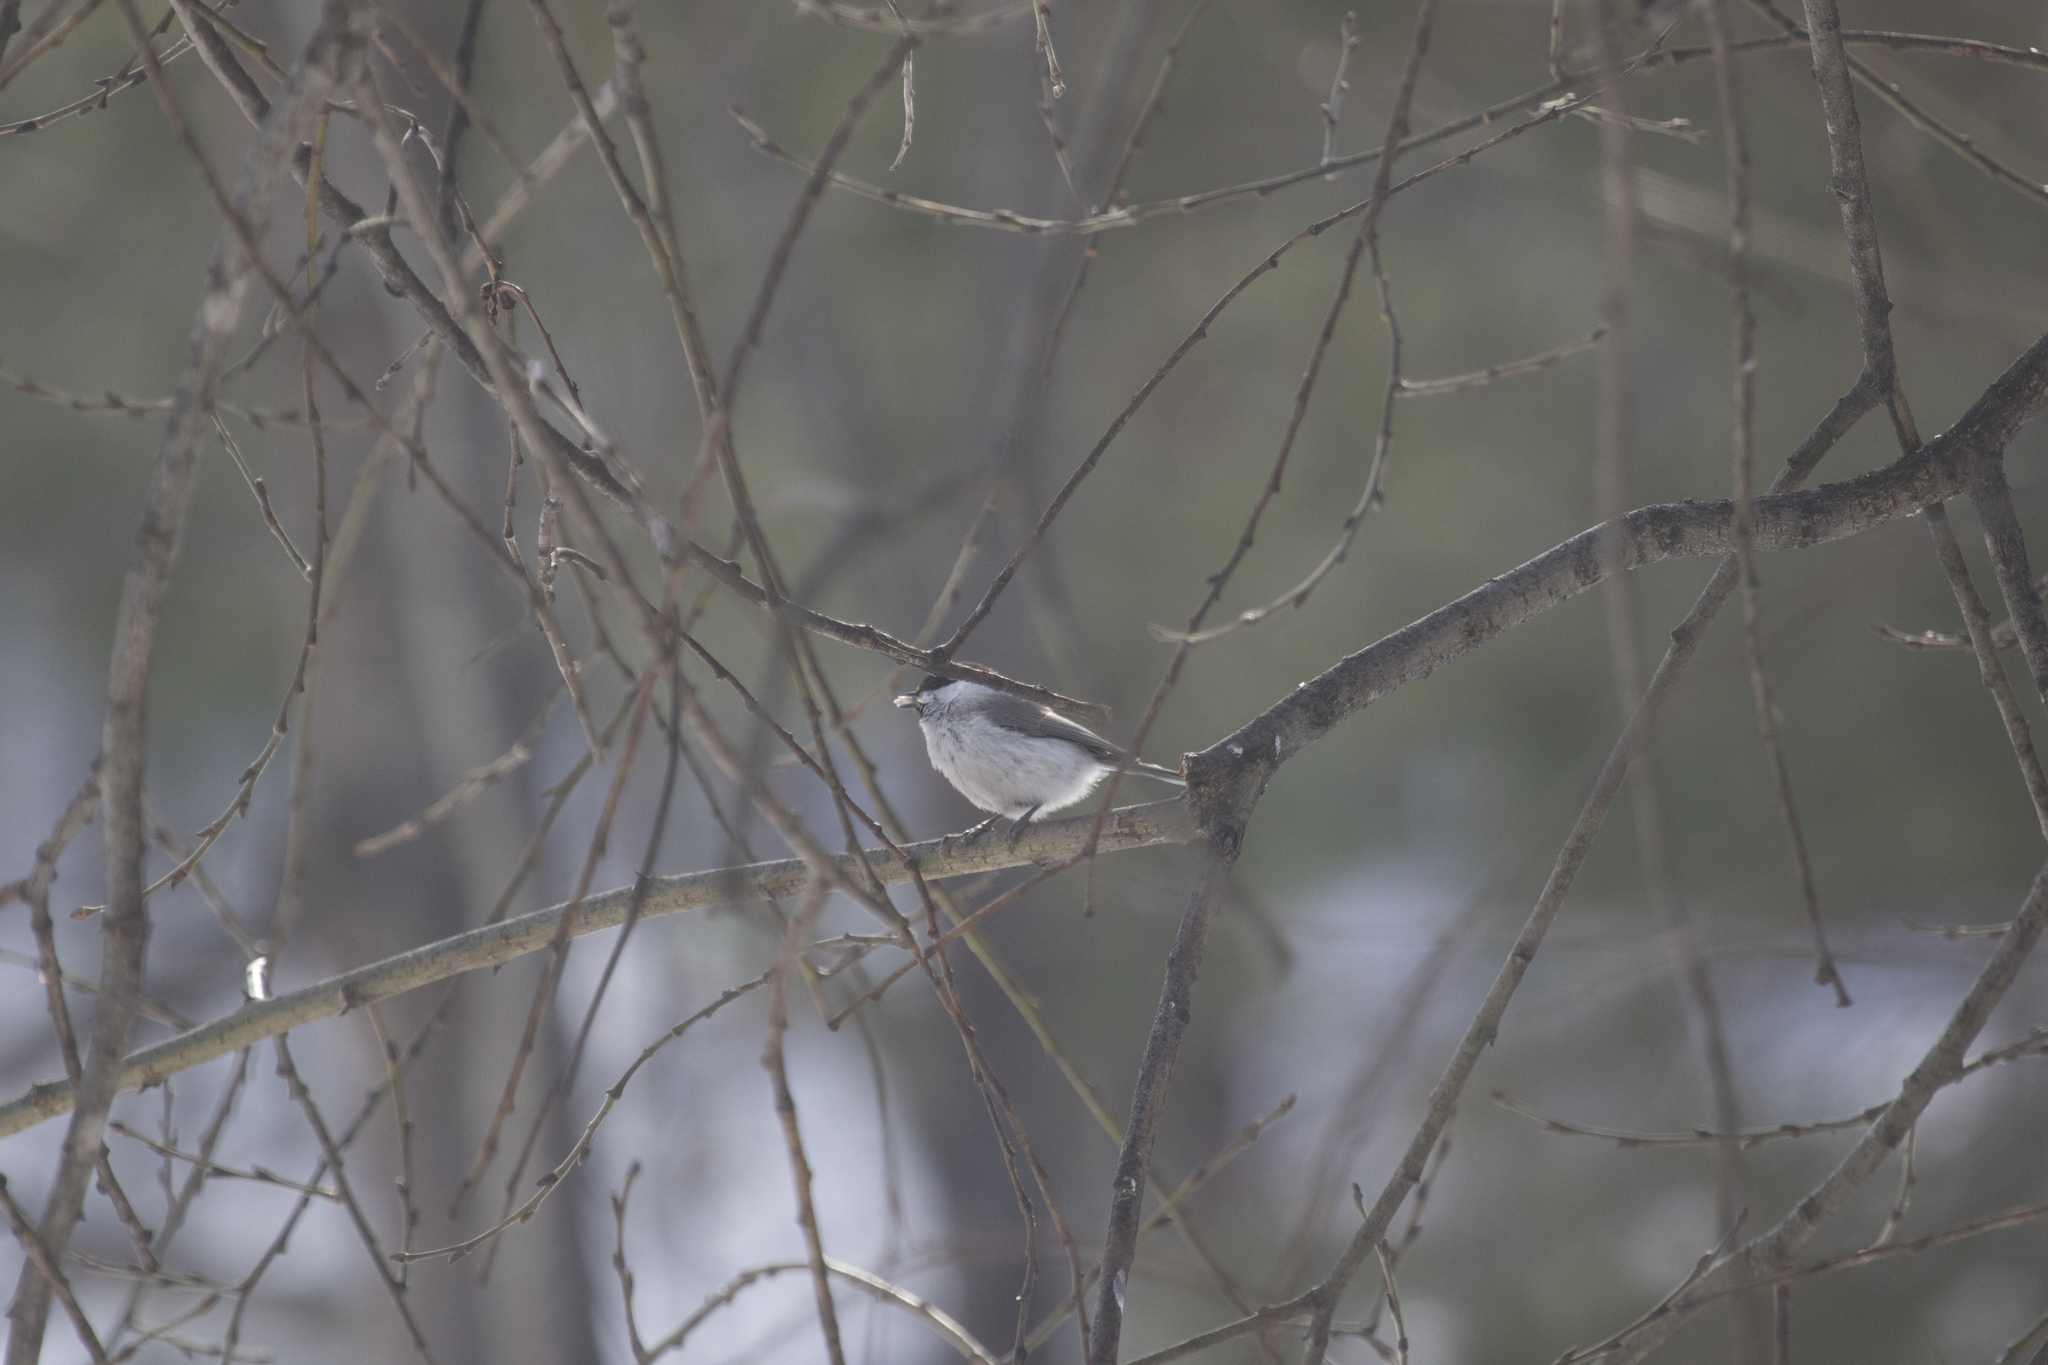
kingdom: Animalia
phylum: Chordata
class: Aves
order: Passeriformes
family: Paridae
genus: Poecile
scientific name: Poecile palustris
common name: Marsh tit
